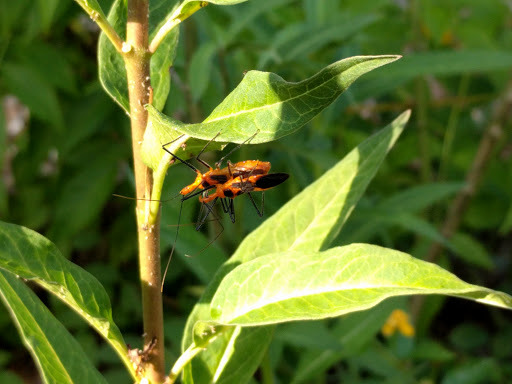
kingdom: Animalia
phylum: Arthropoda
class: Insecta
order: Hemiptera
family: Reduviidae
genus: Zelus
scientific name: Zelus longipes
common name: Milkweed assassin bug
